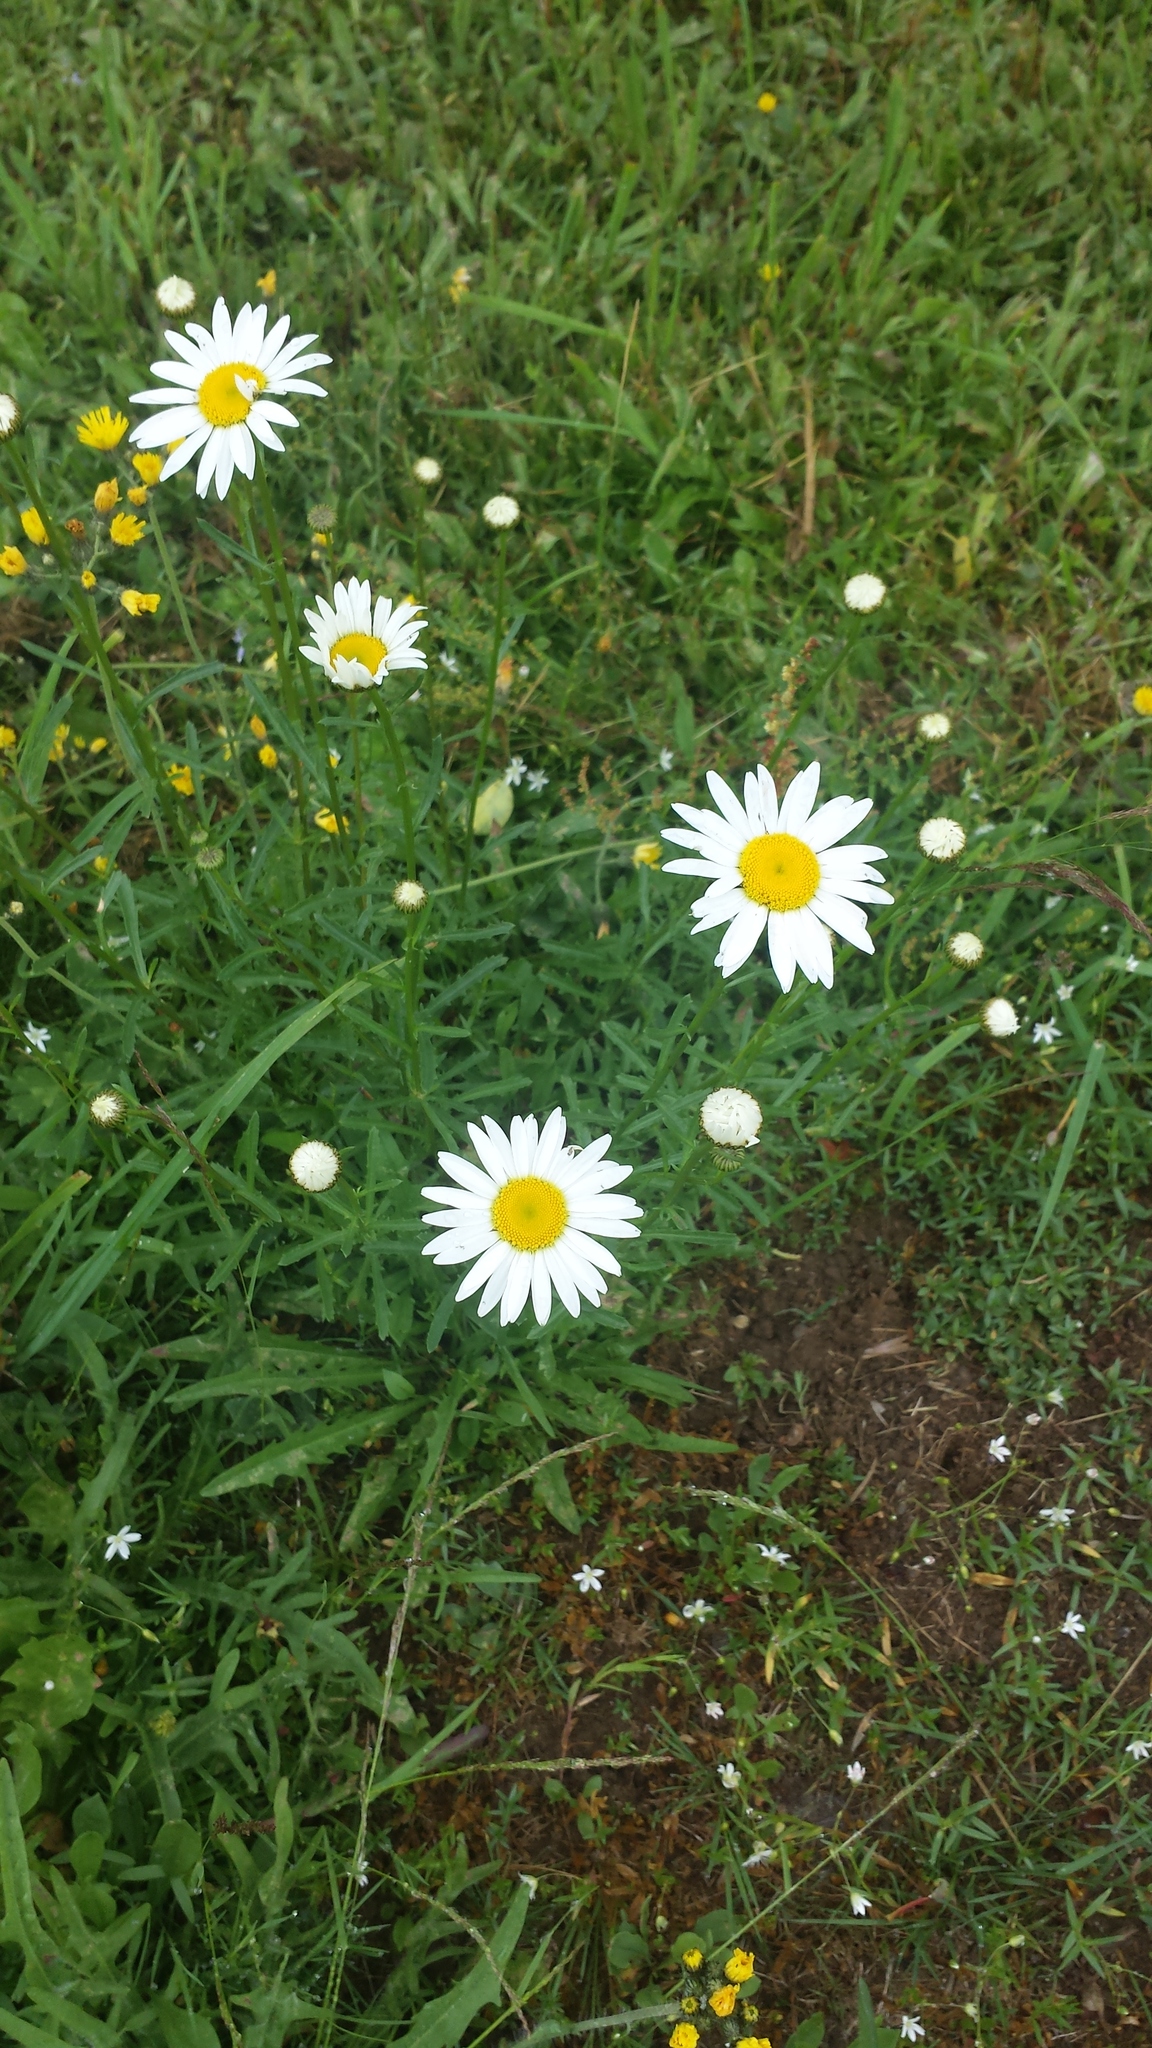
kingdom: Plantae
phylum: Tracheophyta
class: Magnoliopsida
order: Asterales
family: Asteraceae
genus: Leucanthemum
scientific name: Leucanthemum vulgare
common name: Oxeye daisy
